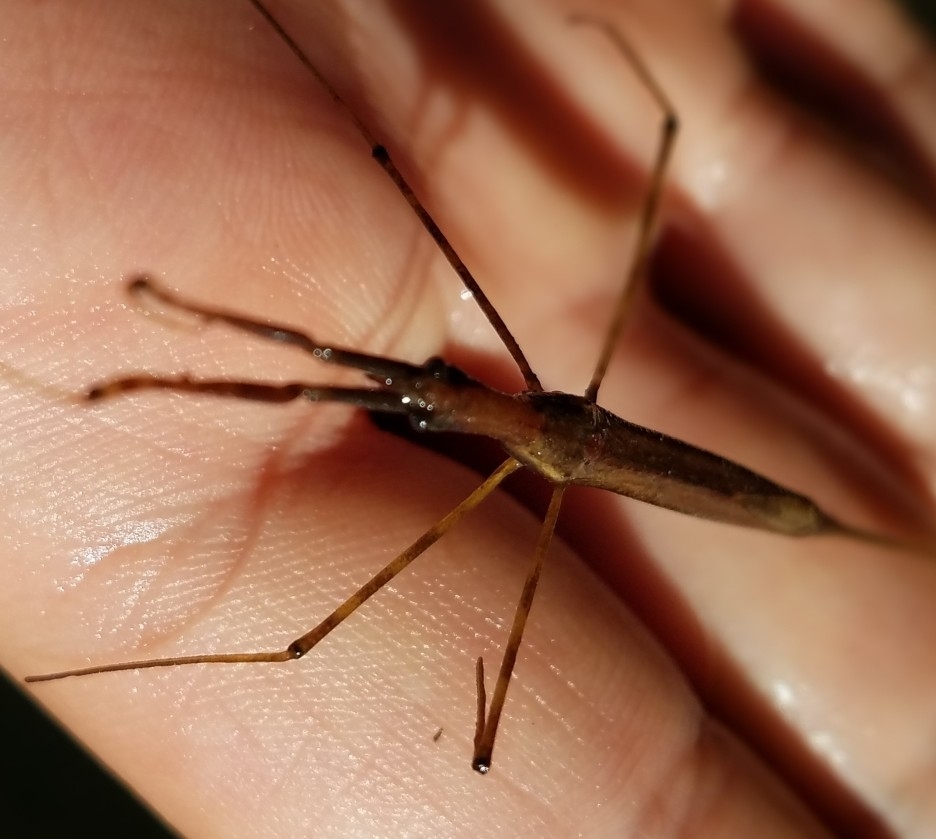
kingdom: Animalia
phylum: Arthropoda
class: Insecta
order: Hemiptera
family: Nepidae
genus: Ranatra
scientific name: Ranatra brevicollis
